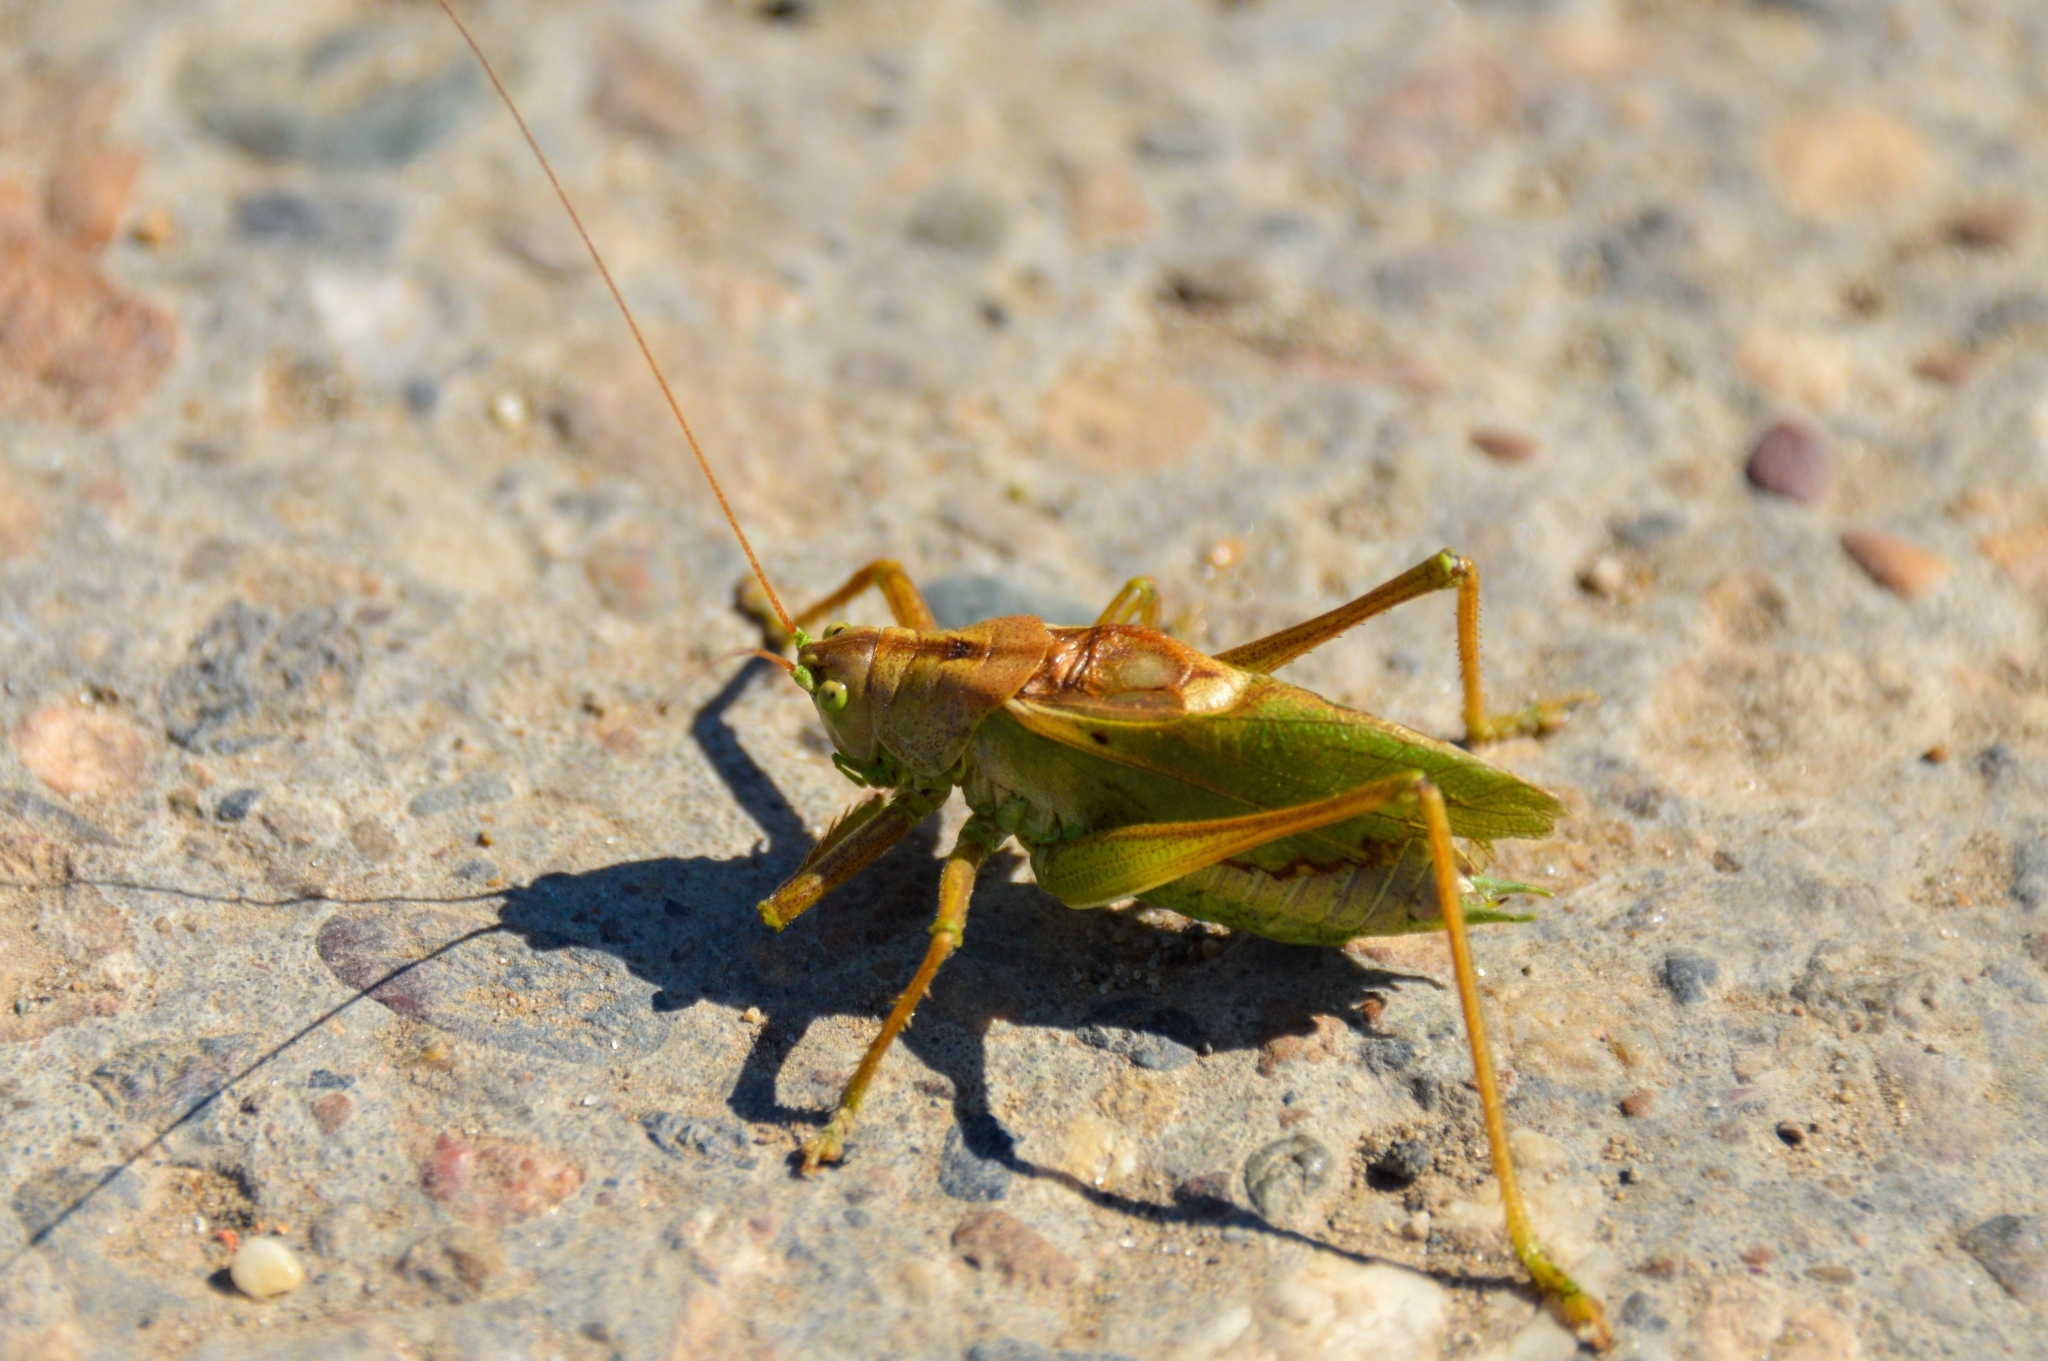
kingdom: Animalia
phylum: Arthropoda
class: Insecta
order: Orthoptera
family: Tettigoniidae
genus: Tettigonia
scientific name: Tettigonia cantans
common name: Upland green bush-cricket
